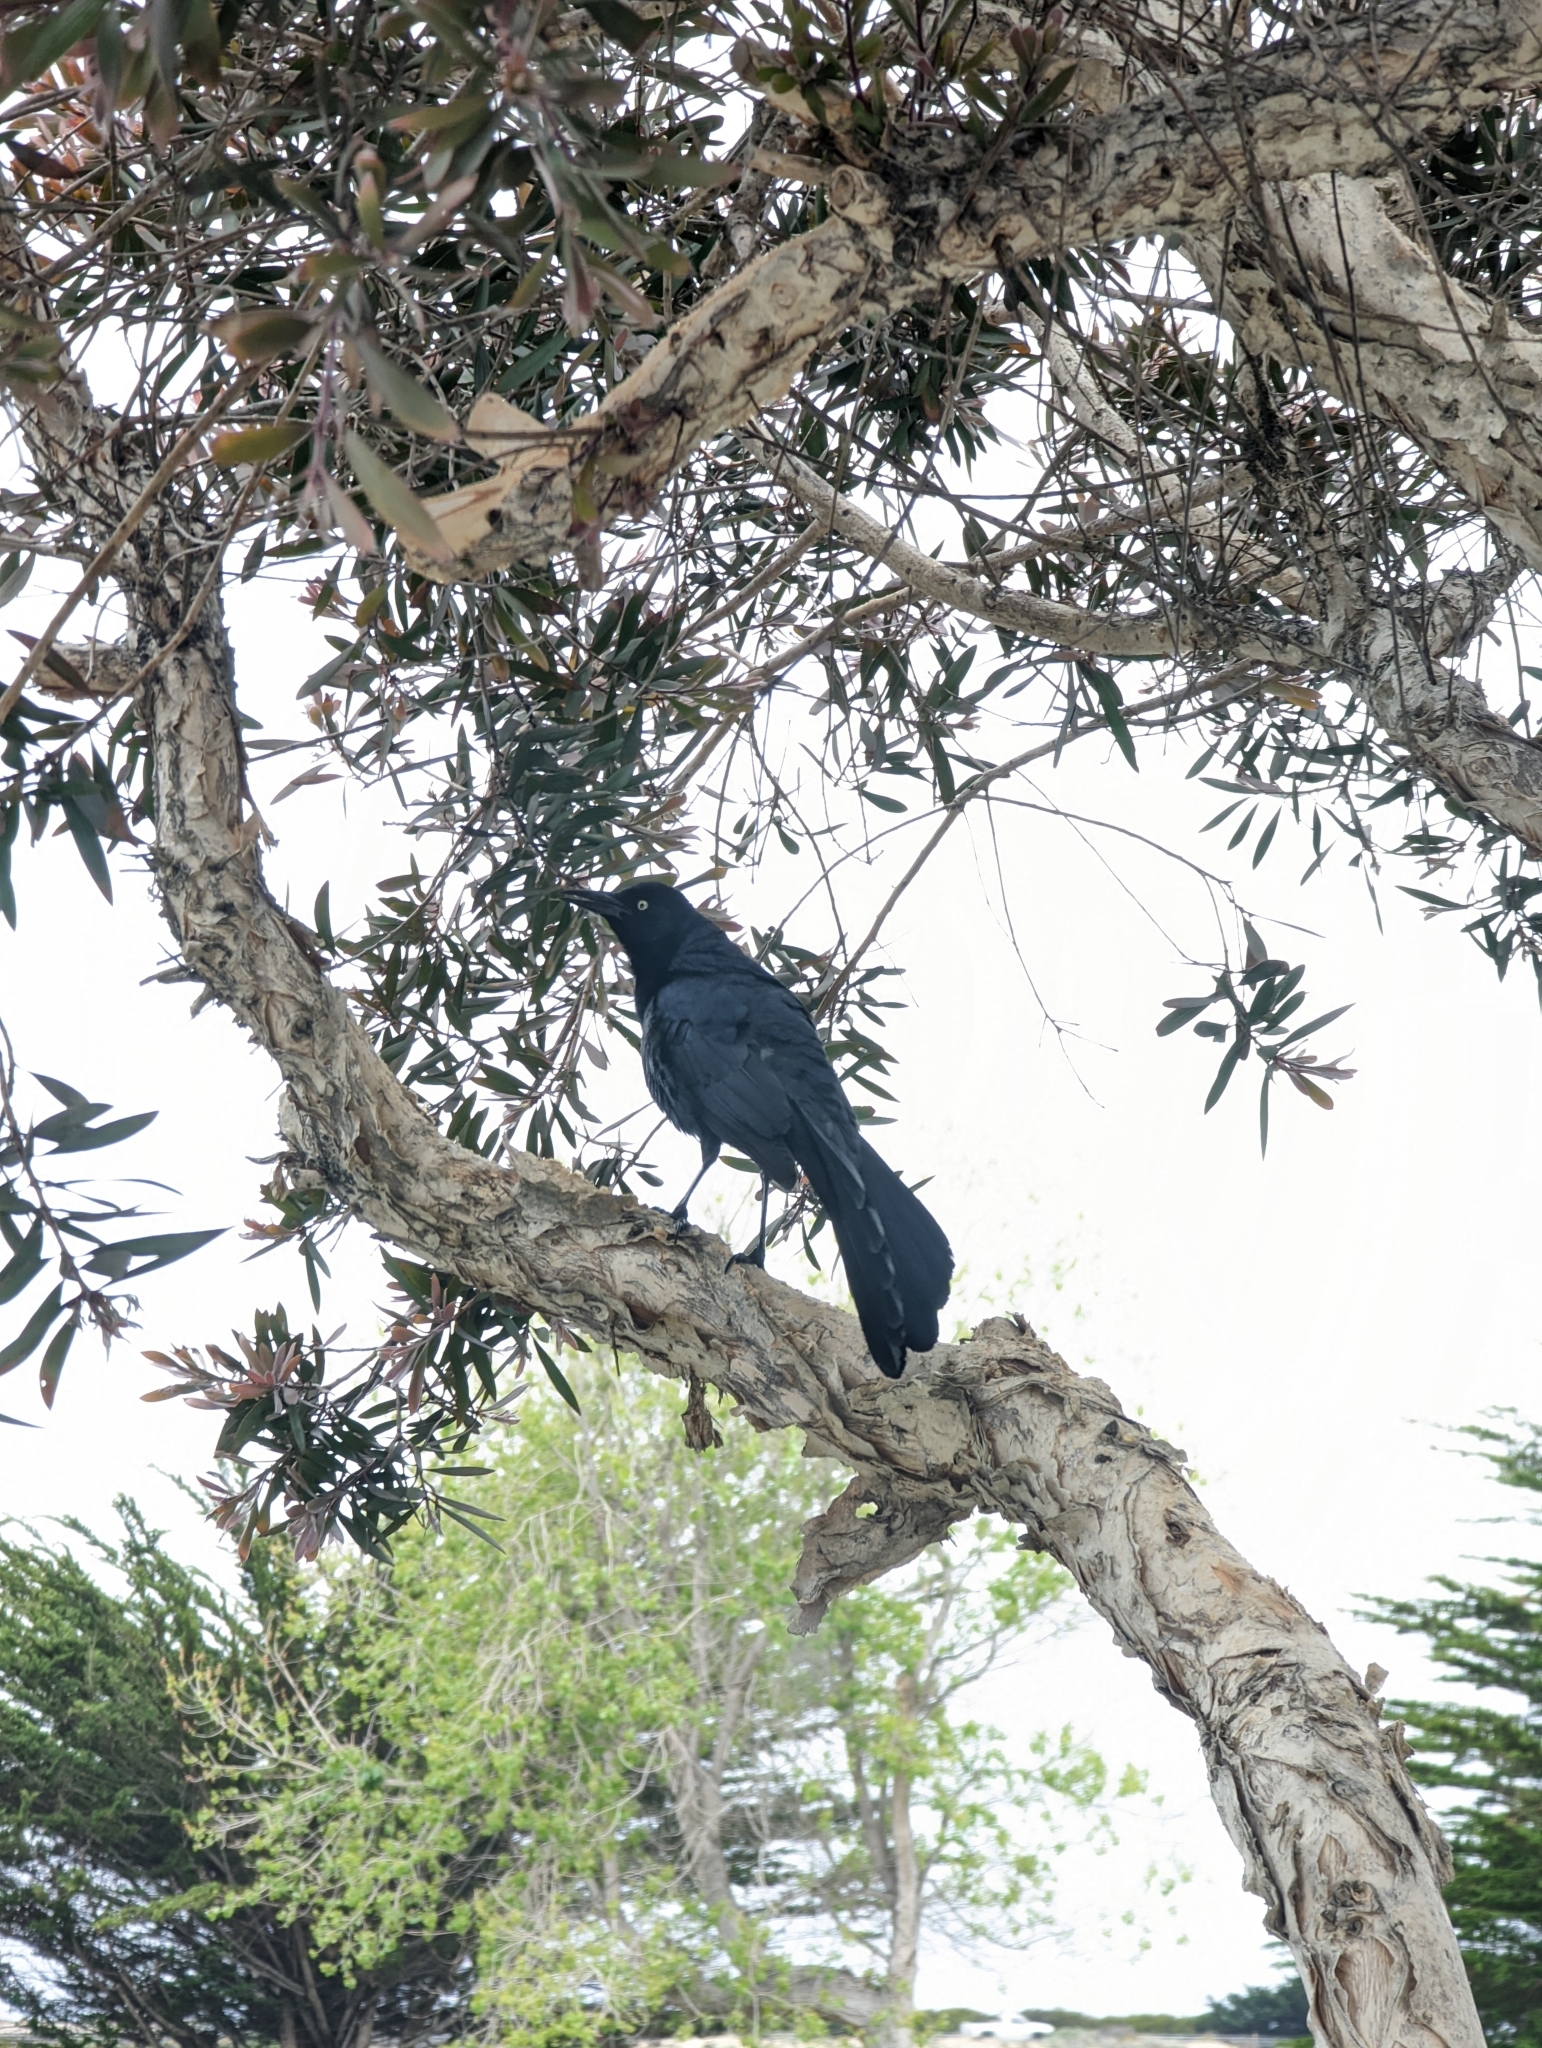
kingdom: Animalia
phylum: Chordata
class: Aves
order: Passeriformes
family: Icteridae
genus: Quiscalus
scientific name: Quiscalus mexicanus
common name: Great-tailed grackle
